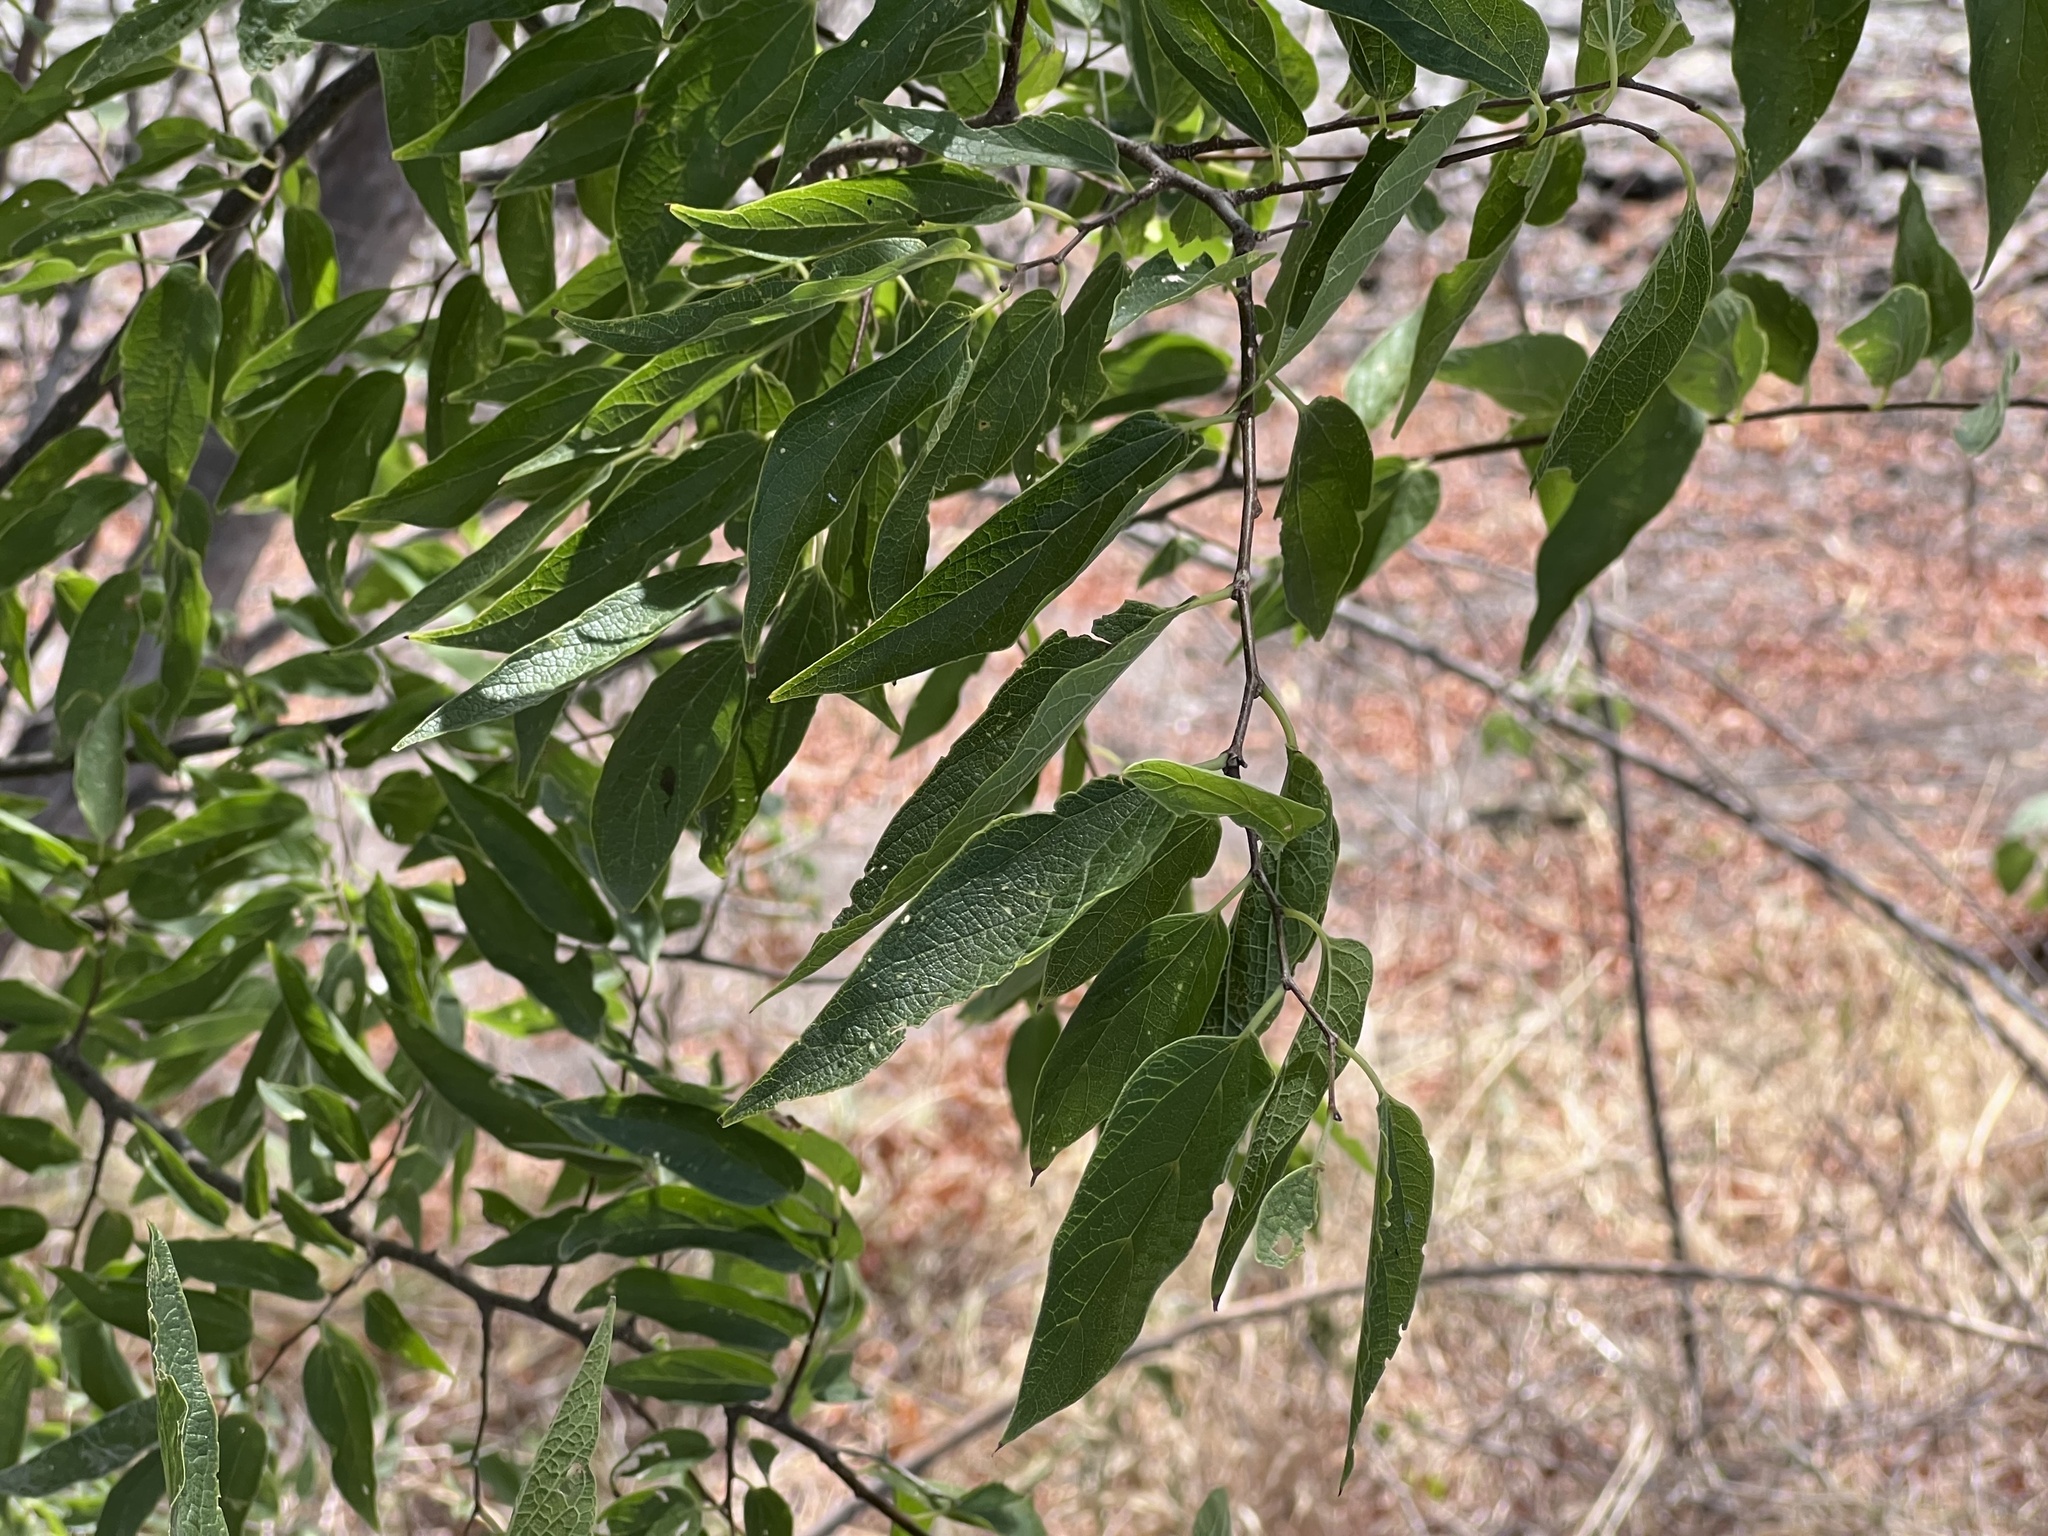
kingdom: Plantae
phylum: Tracheophyta
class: Magnoliopsida
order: Rosales
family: Cannabaceae
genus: Celtis
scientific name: Celtis laevigata
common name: Sugarberry
